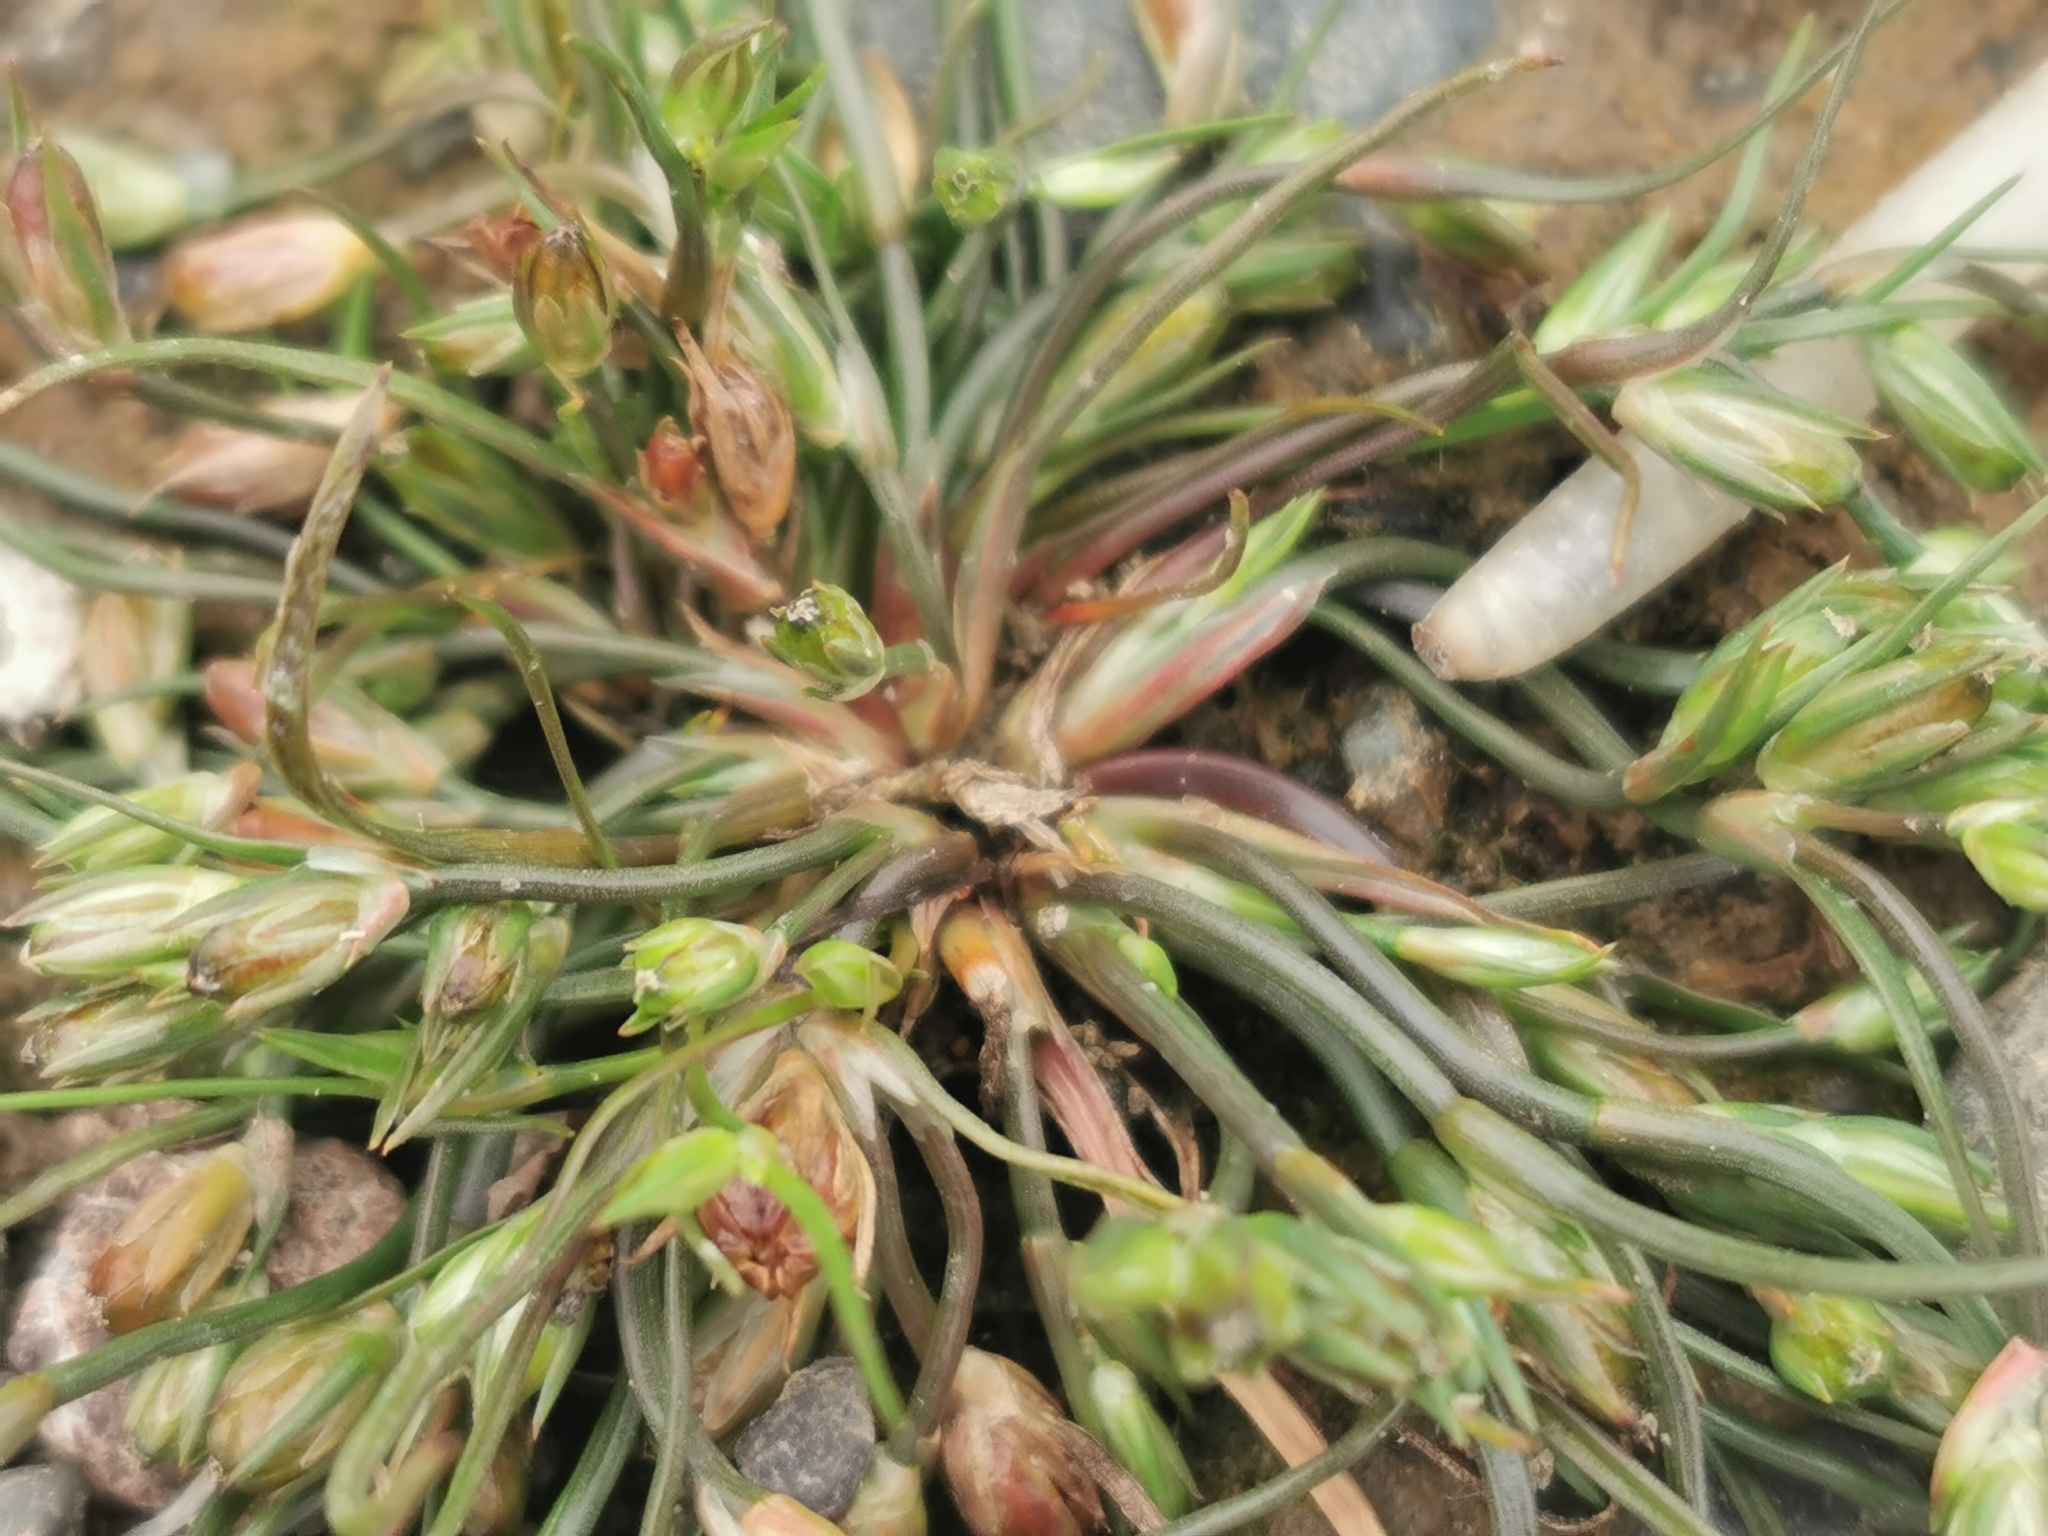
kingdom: Plantae
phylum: Tracheophyta
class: Liliopsida
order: Poales
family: Juncaceae
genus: Juncus
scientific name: Juncus bufonius
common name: Toad rush
